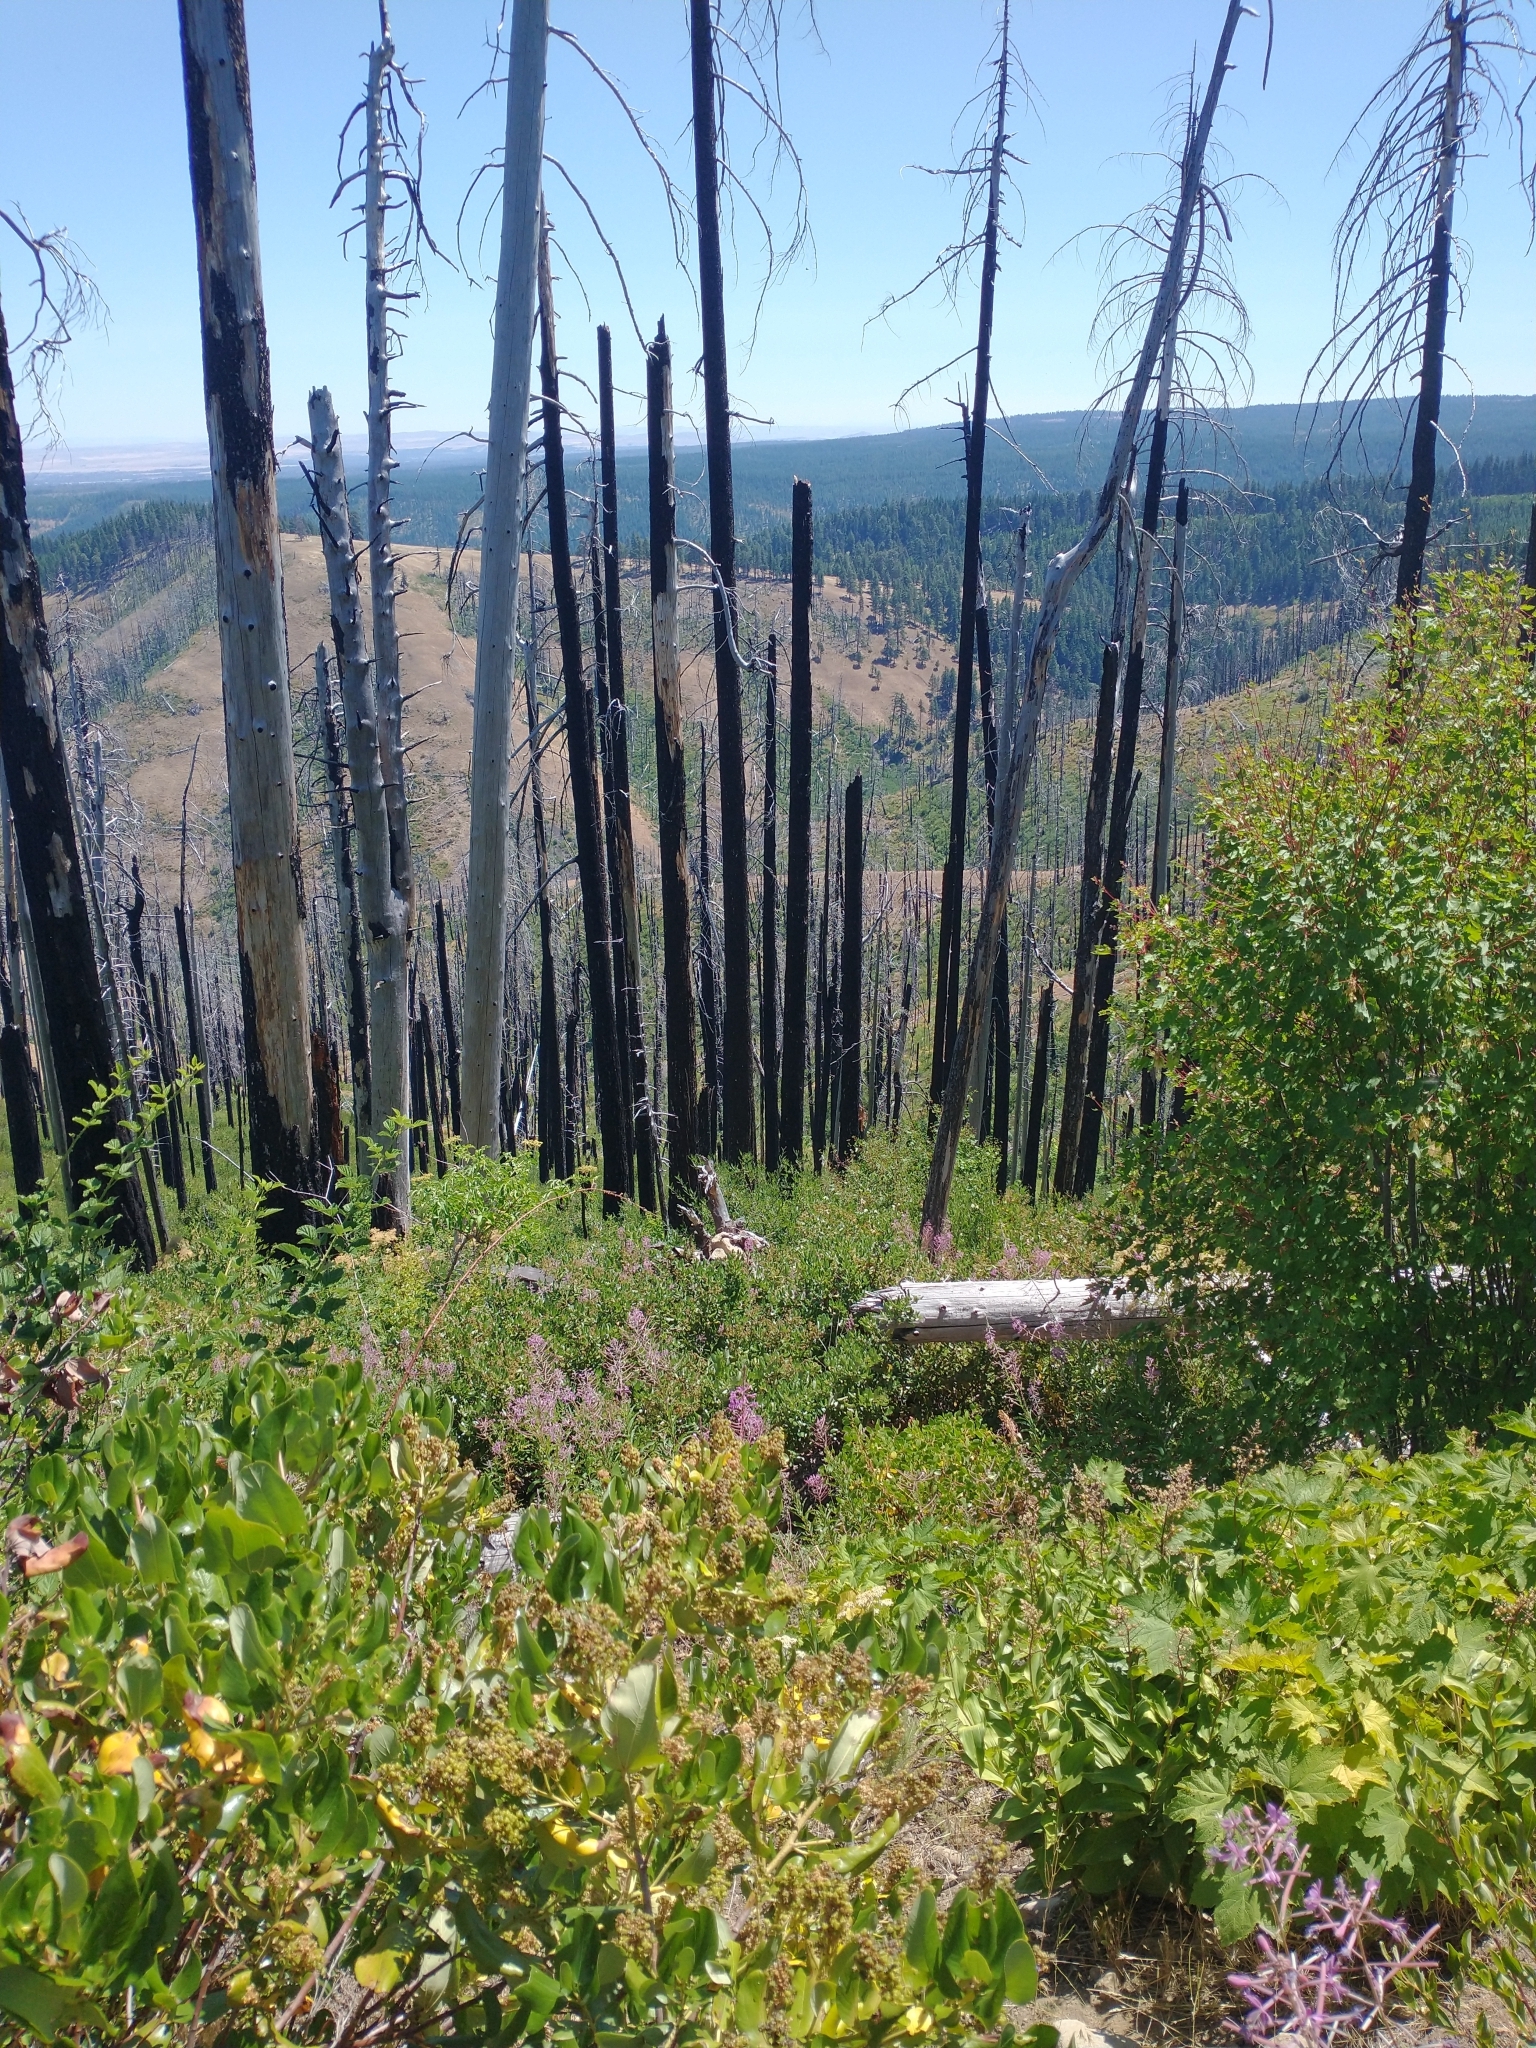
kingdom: Plantae
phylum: Tracheophyta
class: Magnoliopsida
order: Myrtales
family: Onagraceae
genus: Chamaenerion
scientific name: Chamaenerion angustifolium
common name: Fireweed
